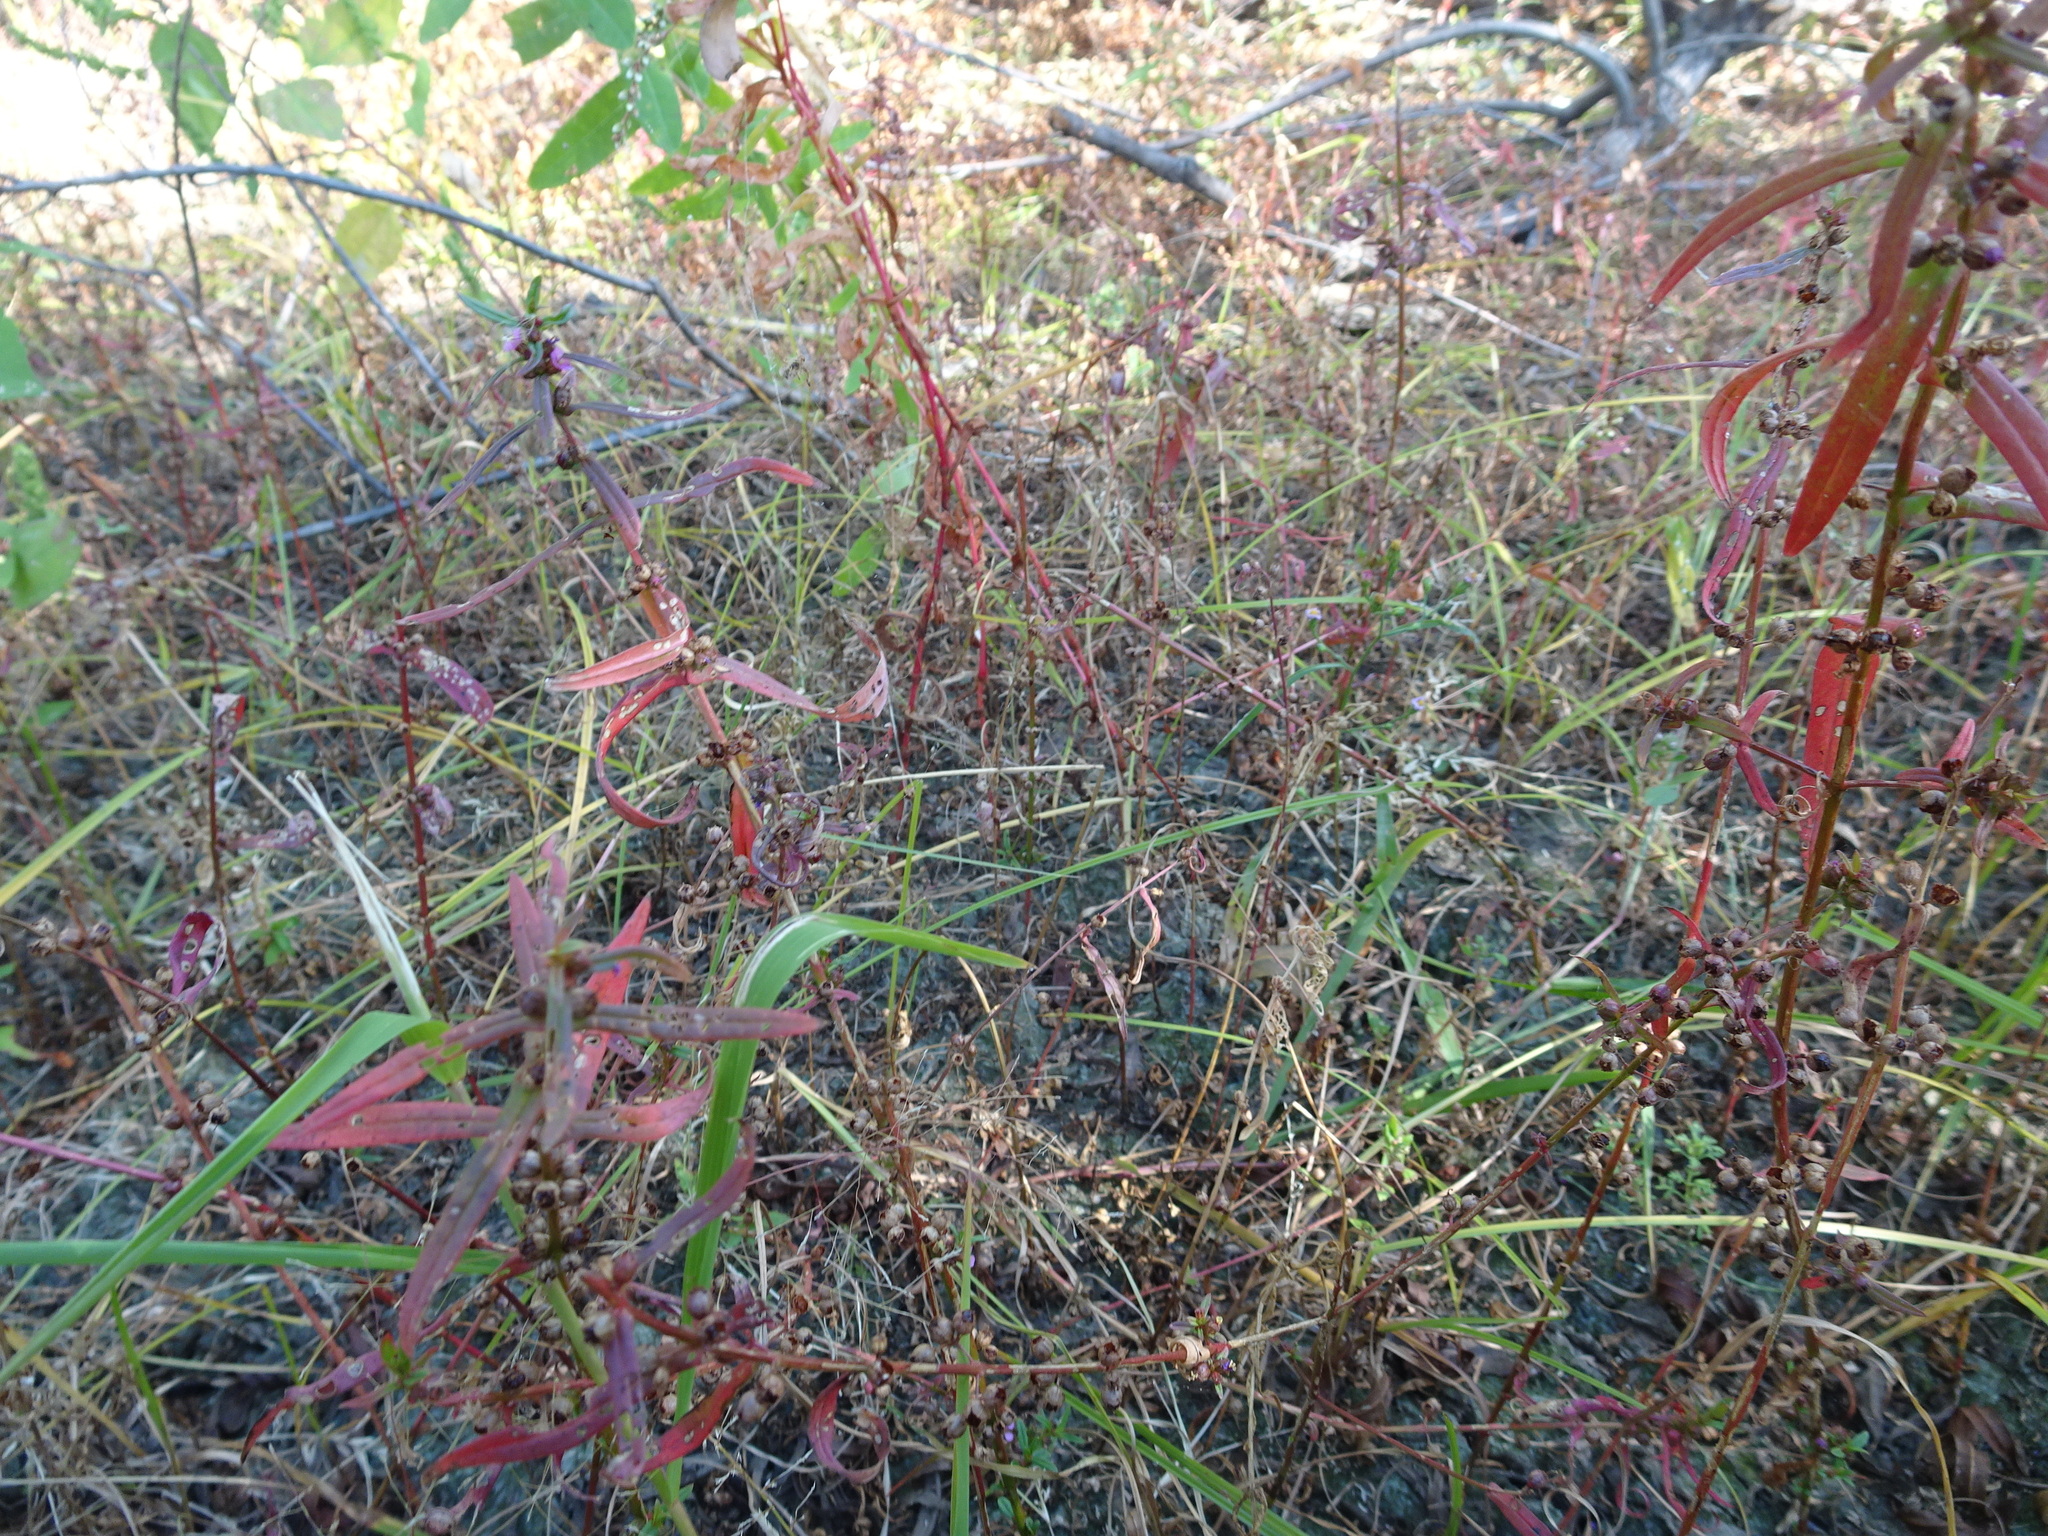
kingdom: Plantae
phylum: Tracheophyta
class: Magnoliopsida
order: Myrtales
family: Lythraceae
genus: Ammannia
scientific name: Ammannia coccinea
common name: Valley redstem
